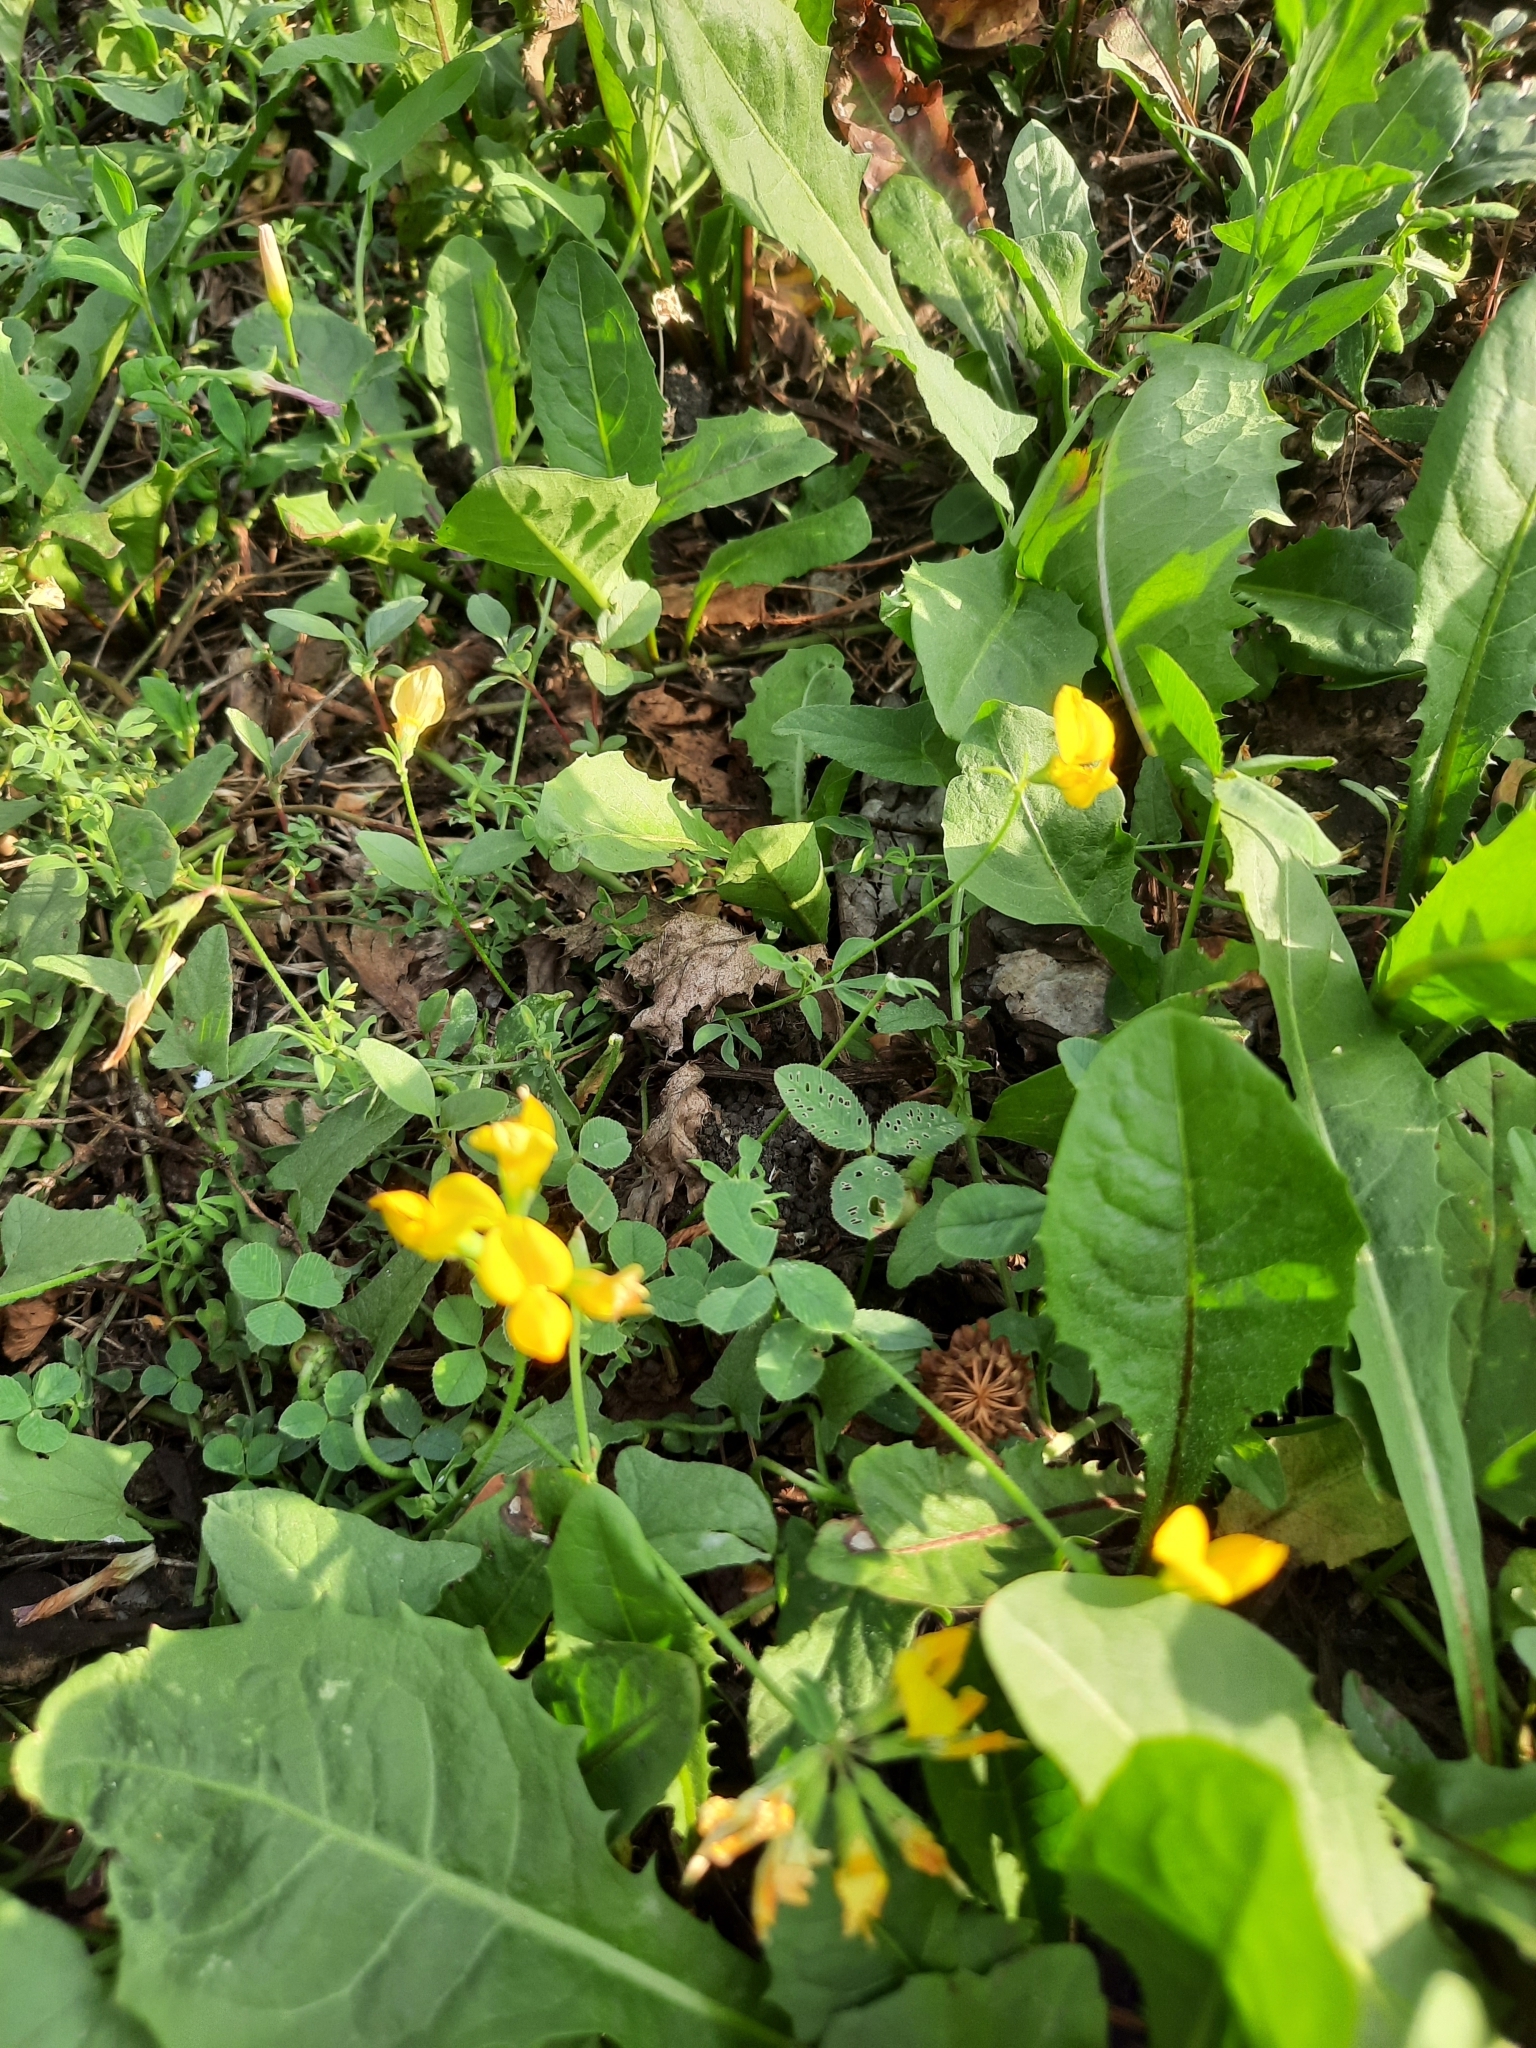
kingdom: Plantae
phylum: Tracheophyta
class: Magnoliopsida
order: Fabales
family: Fabaceae
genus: Lotus
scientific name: Lotus corniculatus
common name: Common bird's-foot-trefoil
